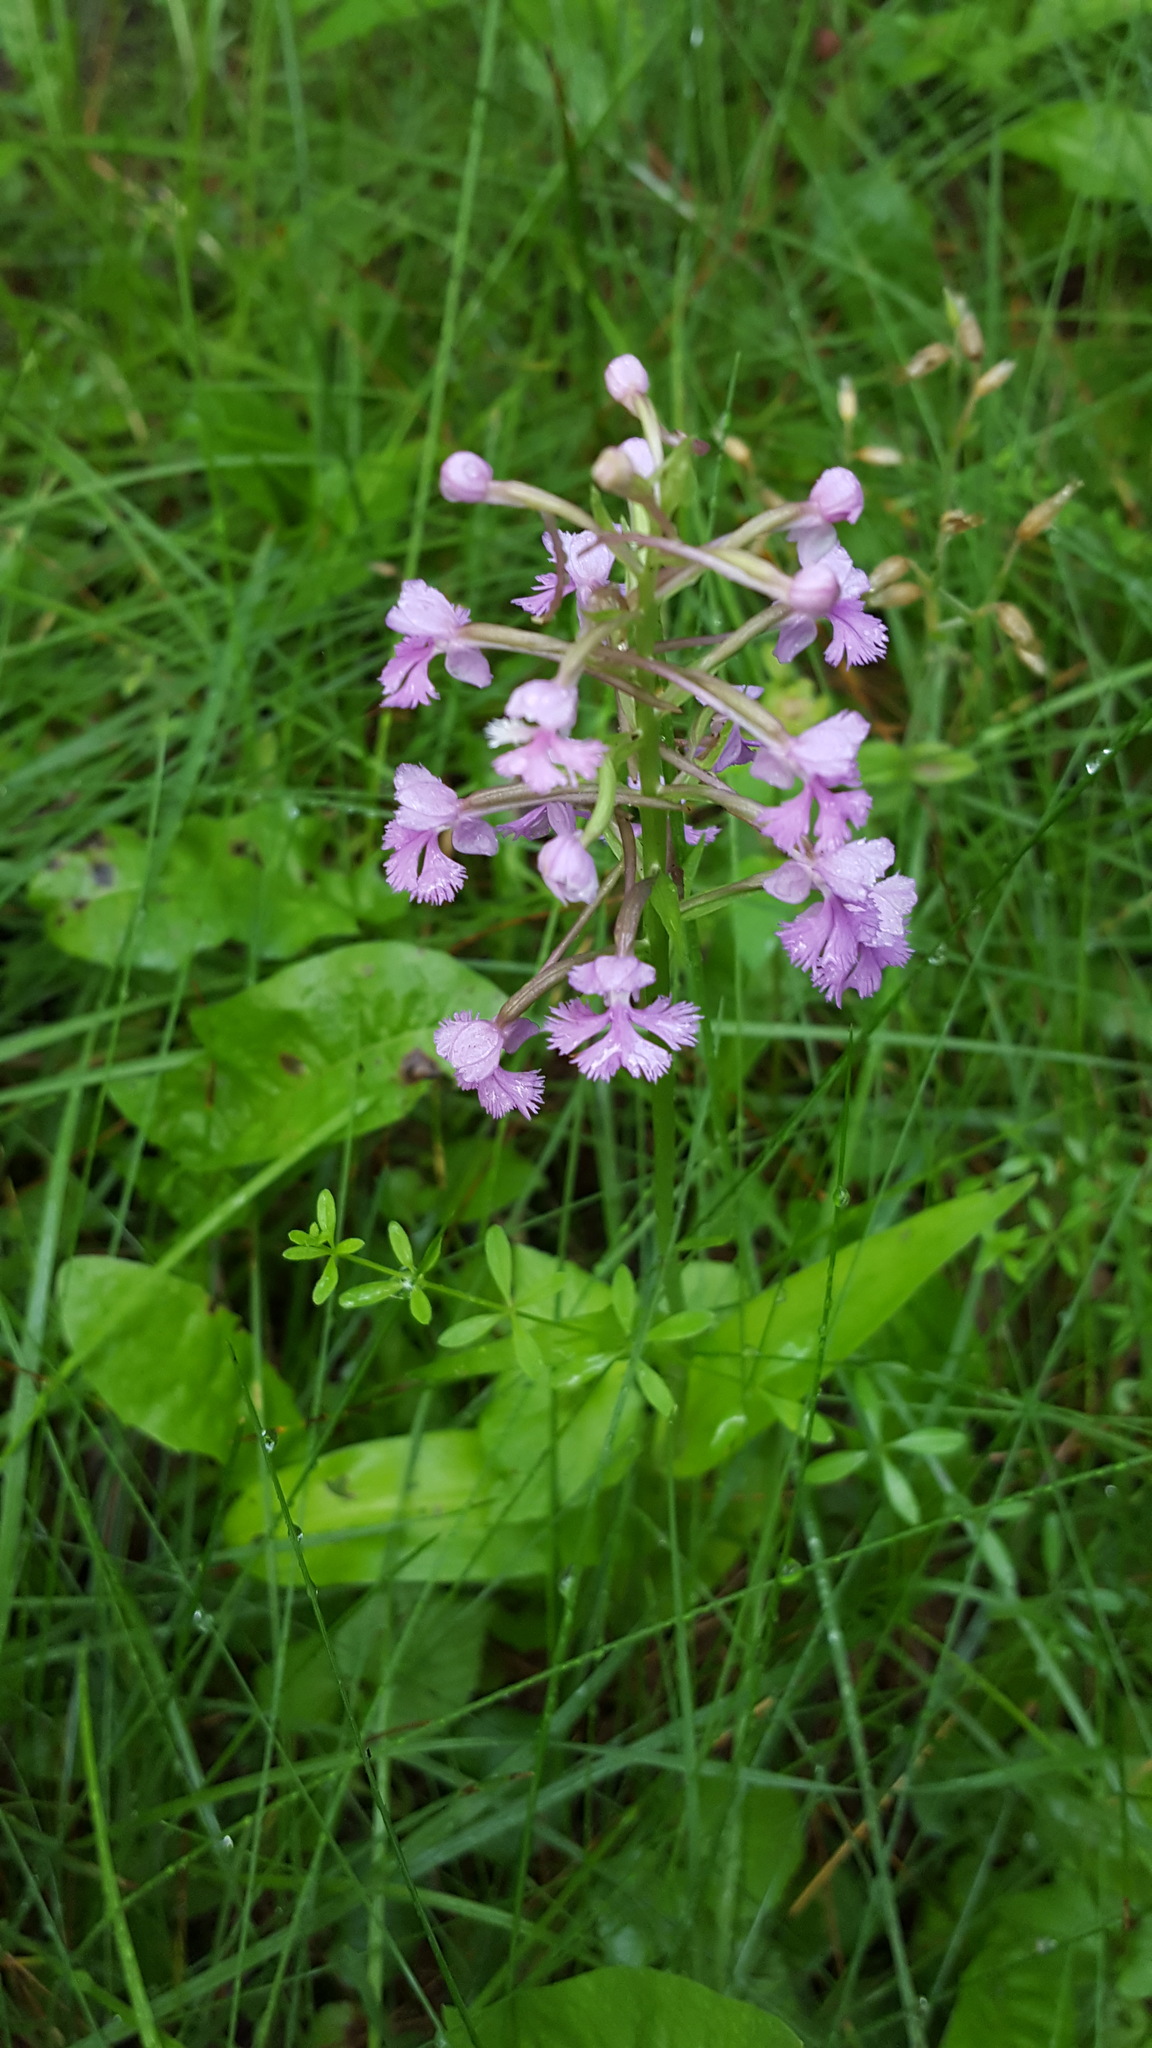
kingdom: Plantae
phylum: Tracheophyta
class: Liliopsida
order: Asparagales
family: Orchidaceae
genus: Platanthera
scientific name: Platanthera psycodes
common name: Lesser purple fringed orchid
